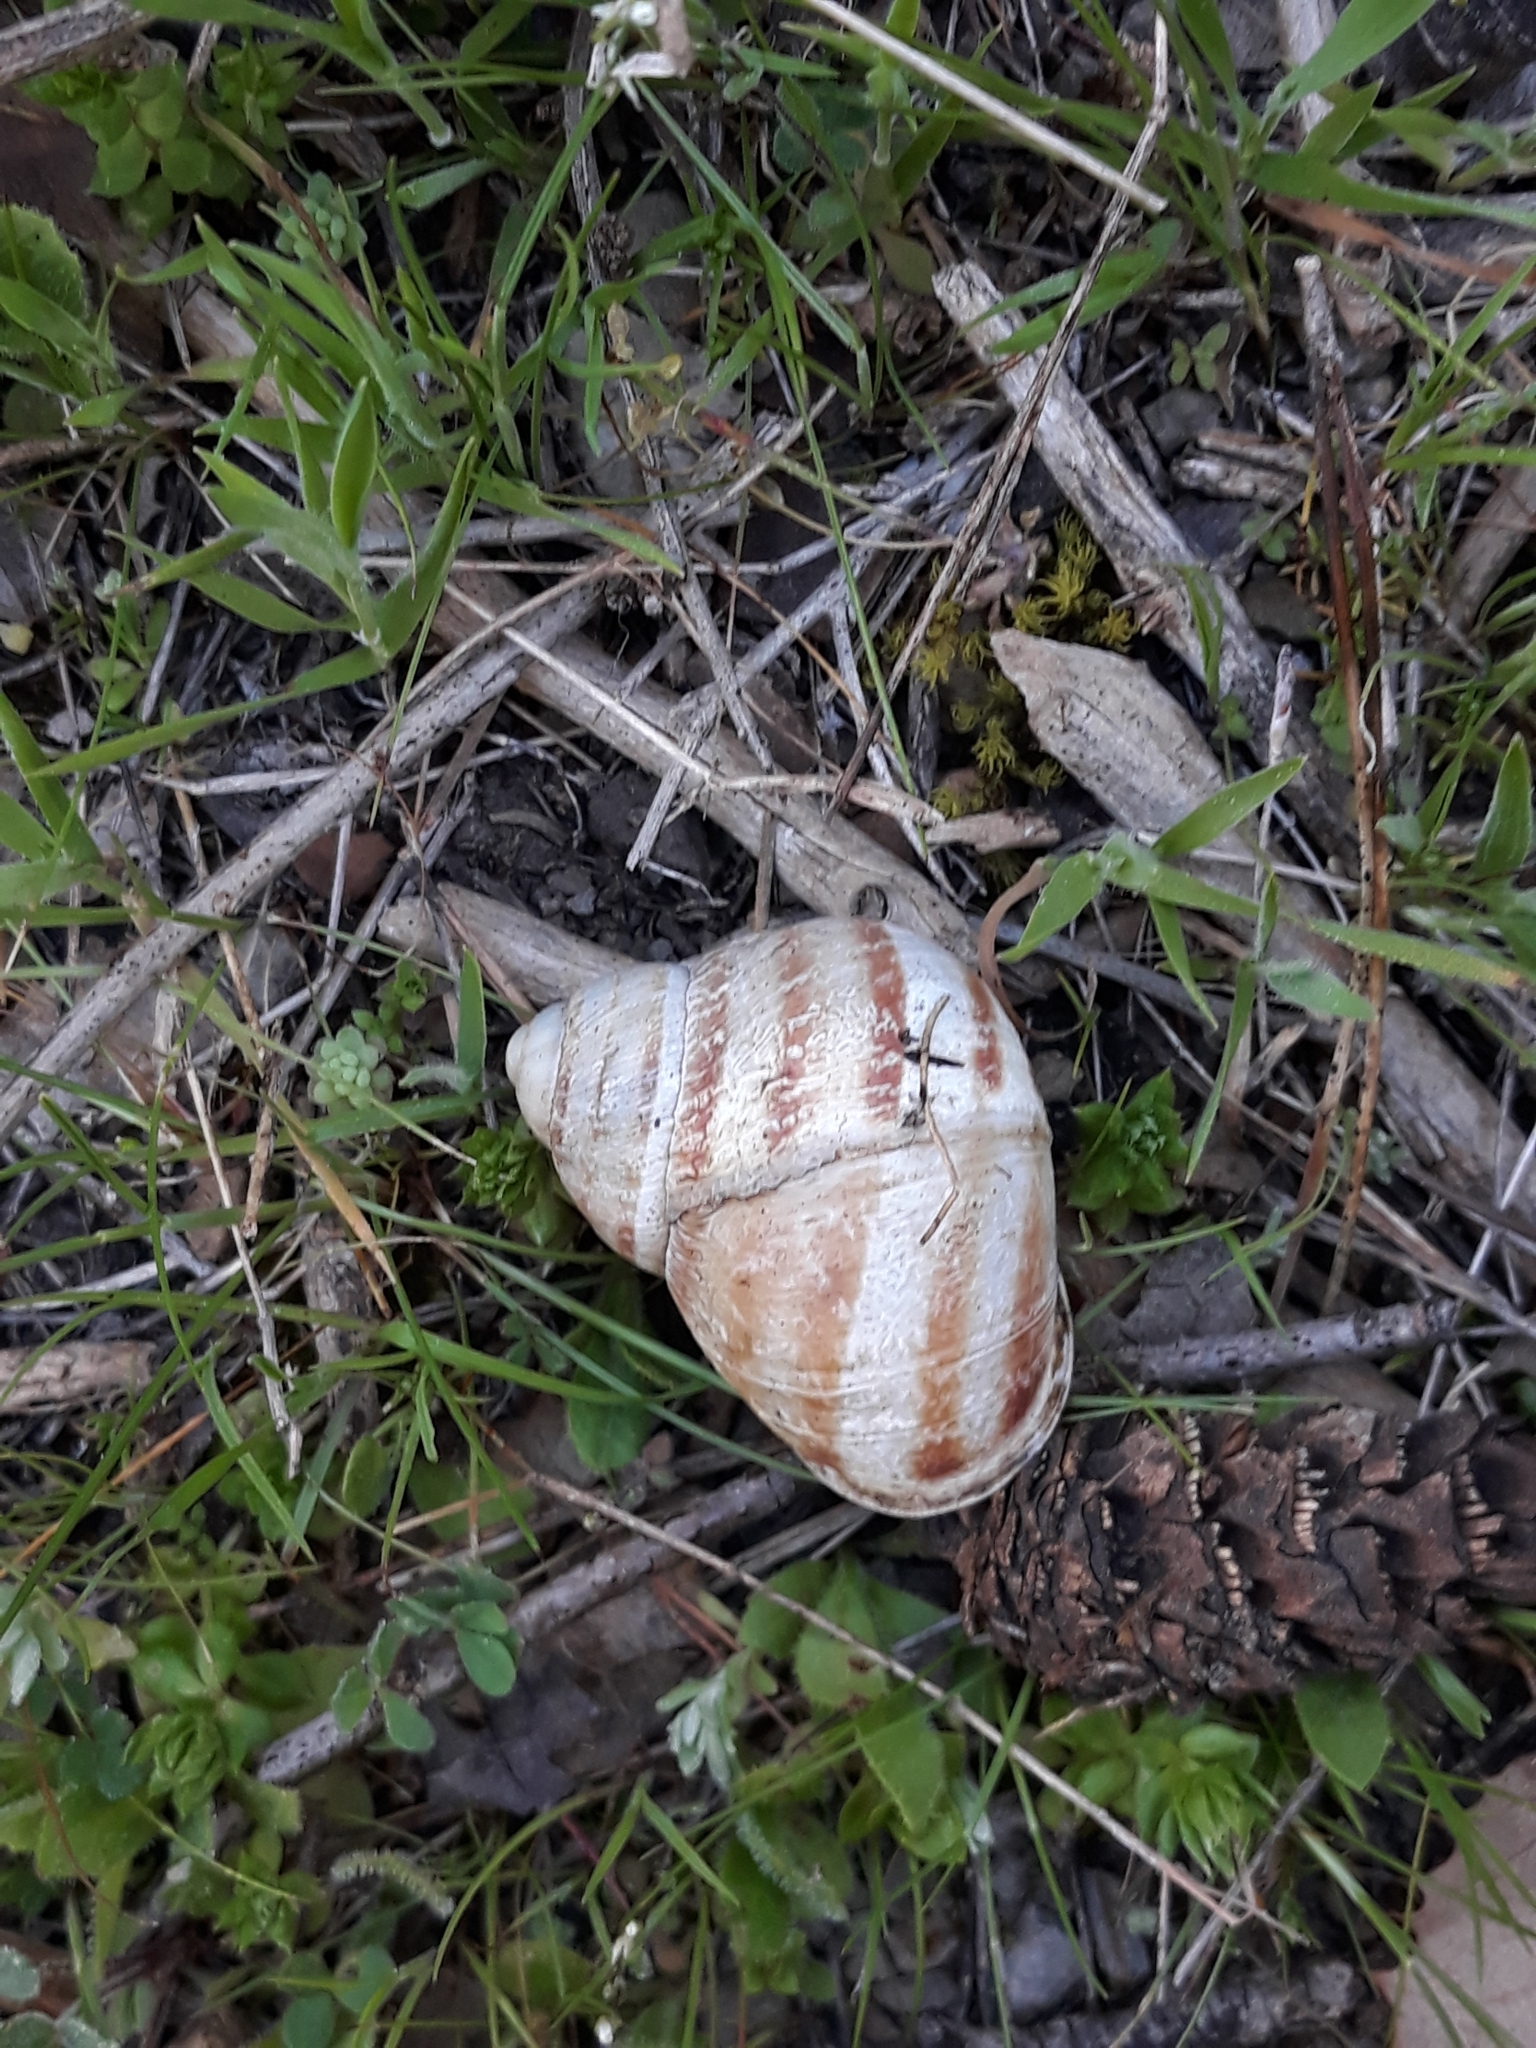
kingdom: Animalia
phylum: Mollusca
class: Gastropoda
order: Stylommatophora
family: Helicidae
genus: Cornu
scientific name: Cornu aspersum
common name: Brown garden snail
